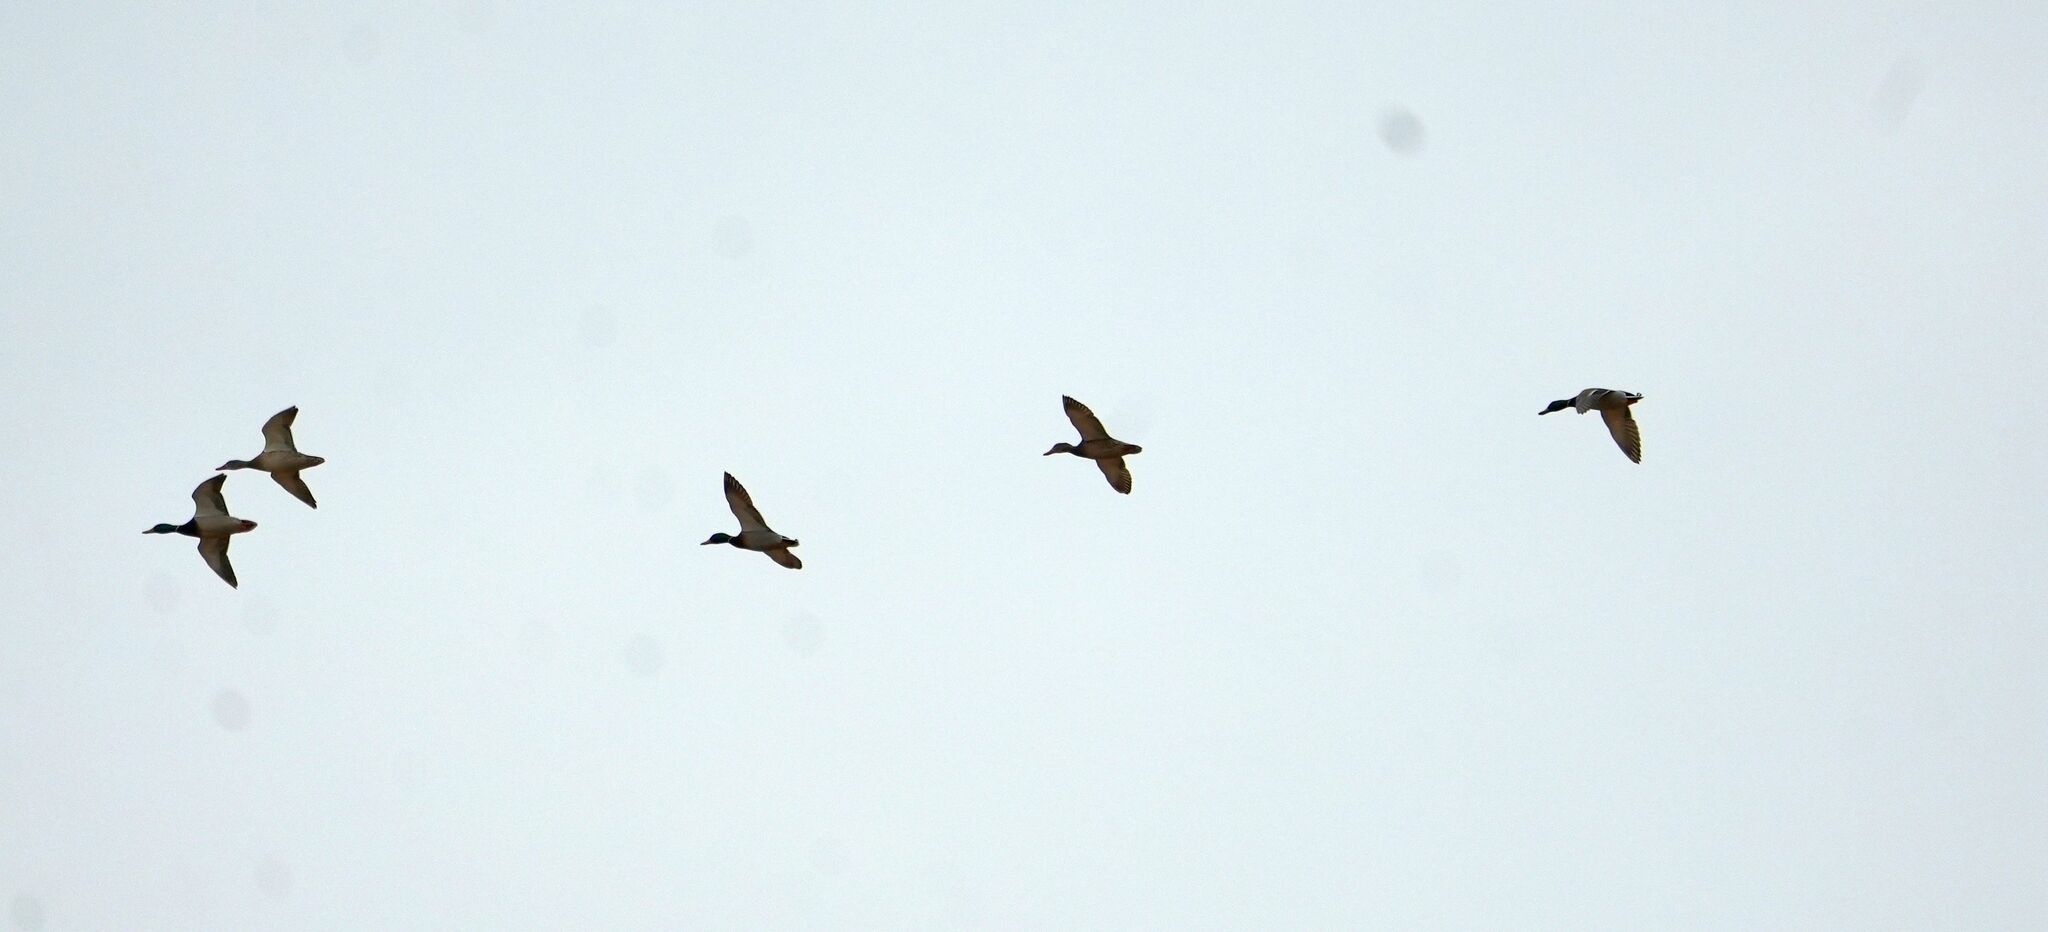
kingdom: Animalia
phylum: Chordata
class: Aves
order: Anseriformes
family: Anatidae
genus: Anas
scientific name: Anas platyrhynchos
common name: Mallard
